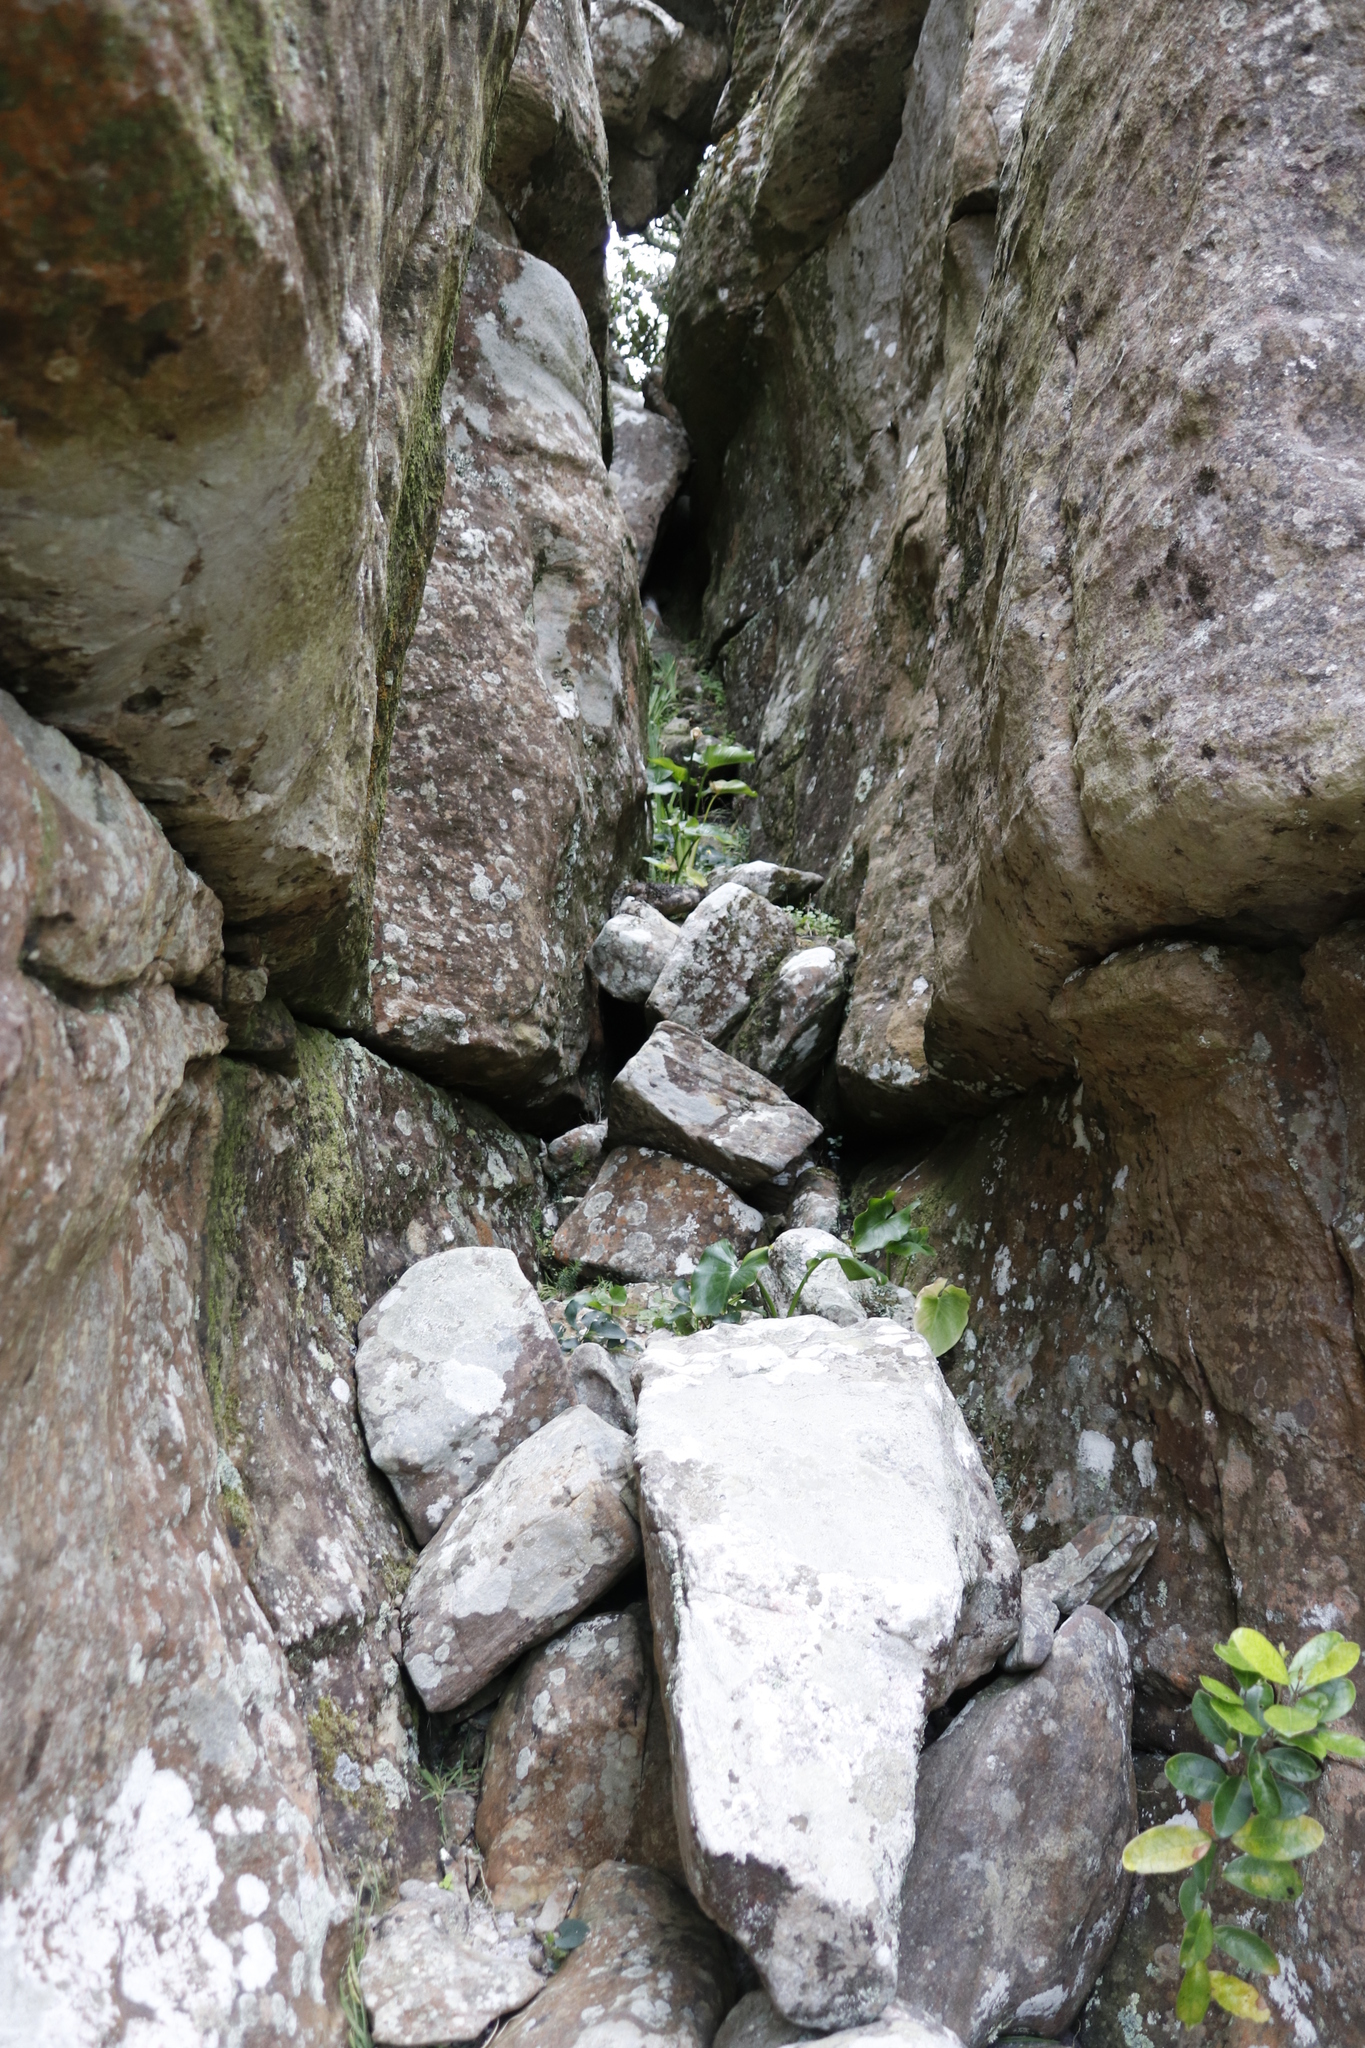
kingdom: Plantae
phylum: Tracheophyta
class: Liliopsida
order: Alismatales
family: Araceae
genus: Zantedeschia
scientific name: Zantedeschia aethiopica
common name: Altar-lily
